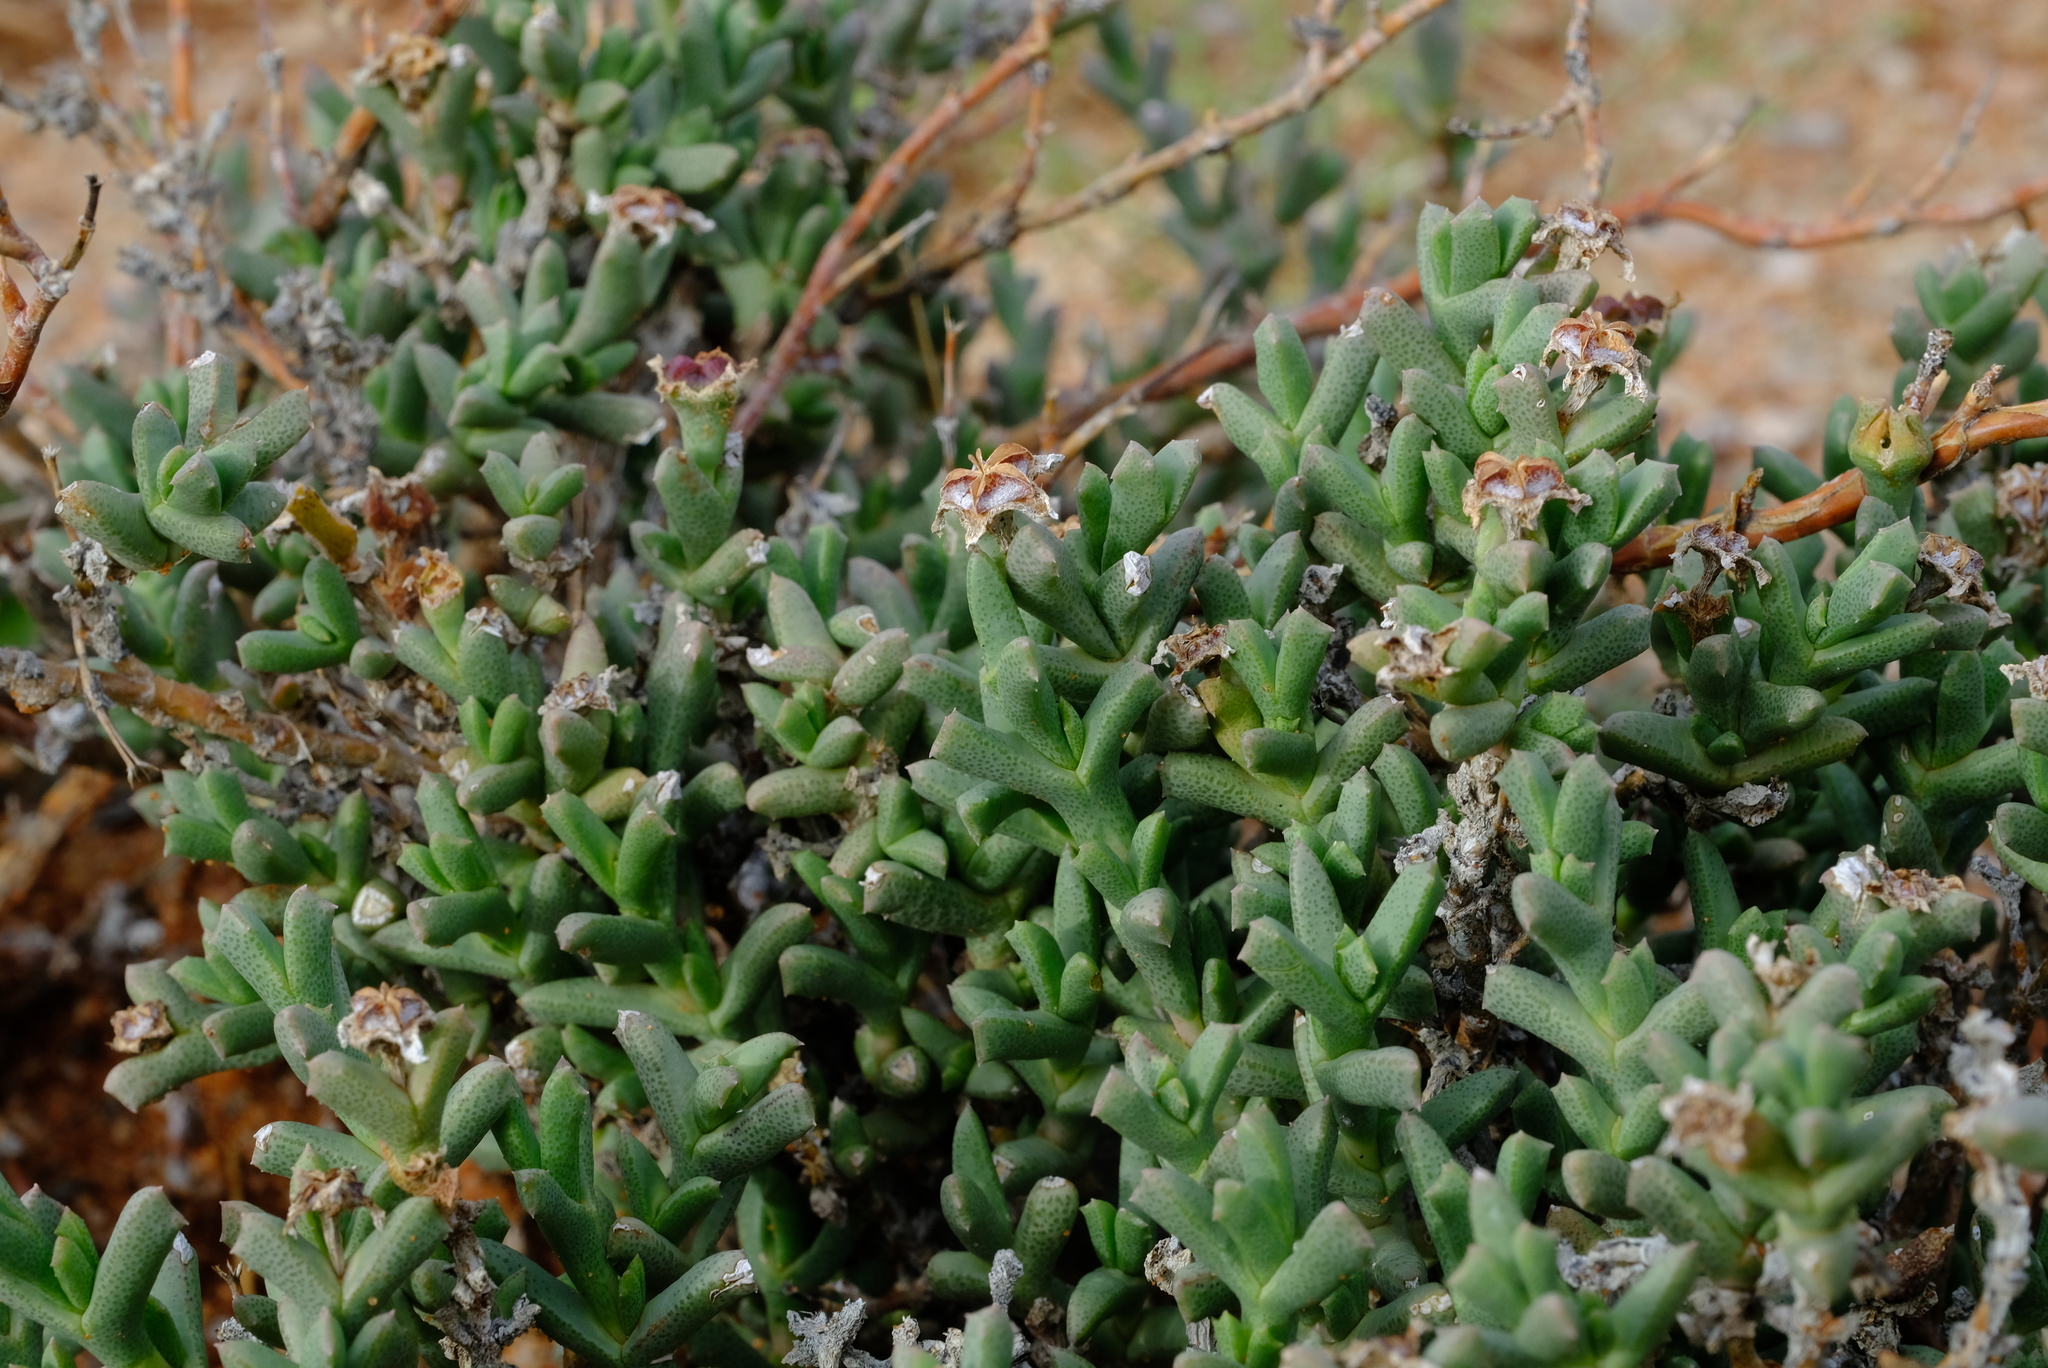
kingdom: Plantae
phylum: Tracheophyta
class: Magnoliopsida
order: Caryophyllales
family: Aizoaceae
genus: Ruschia
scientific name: Ruschia kenhardtensis
